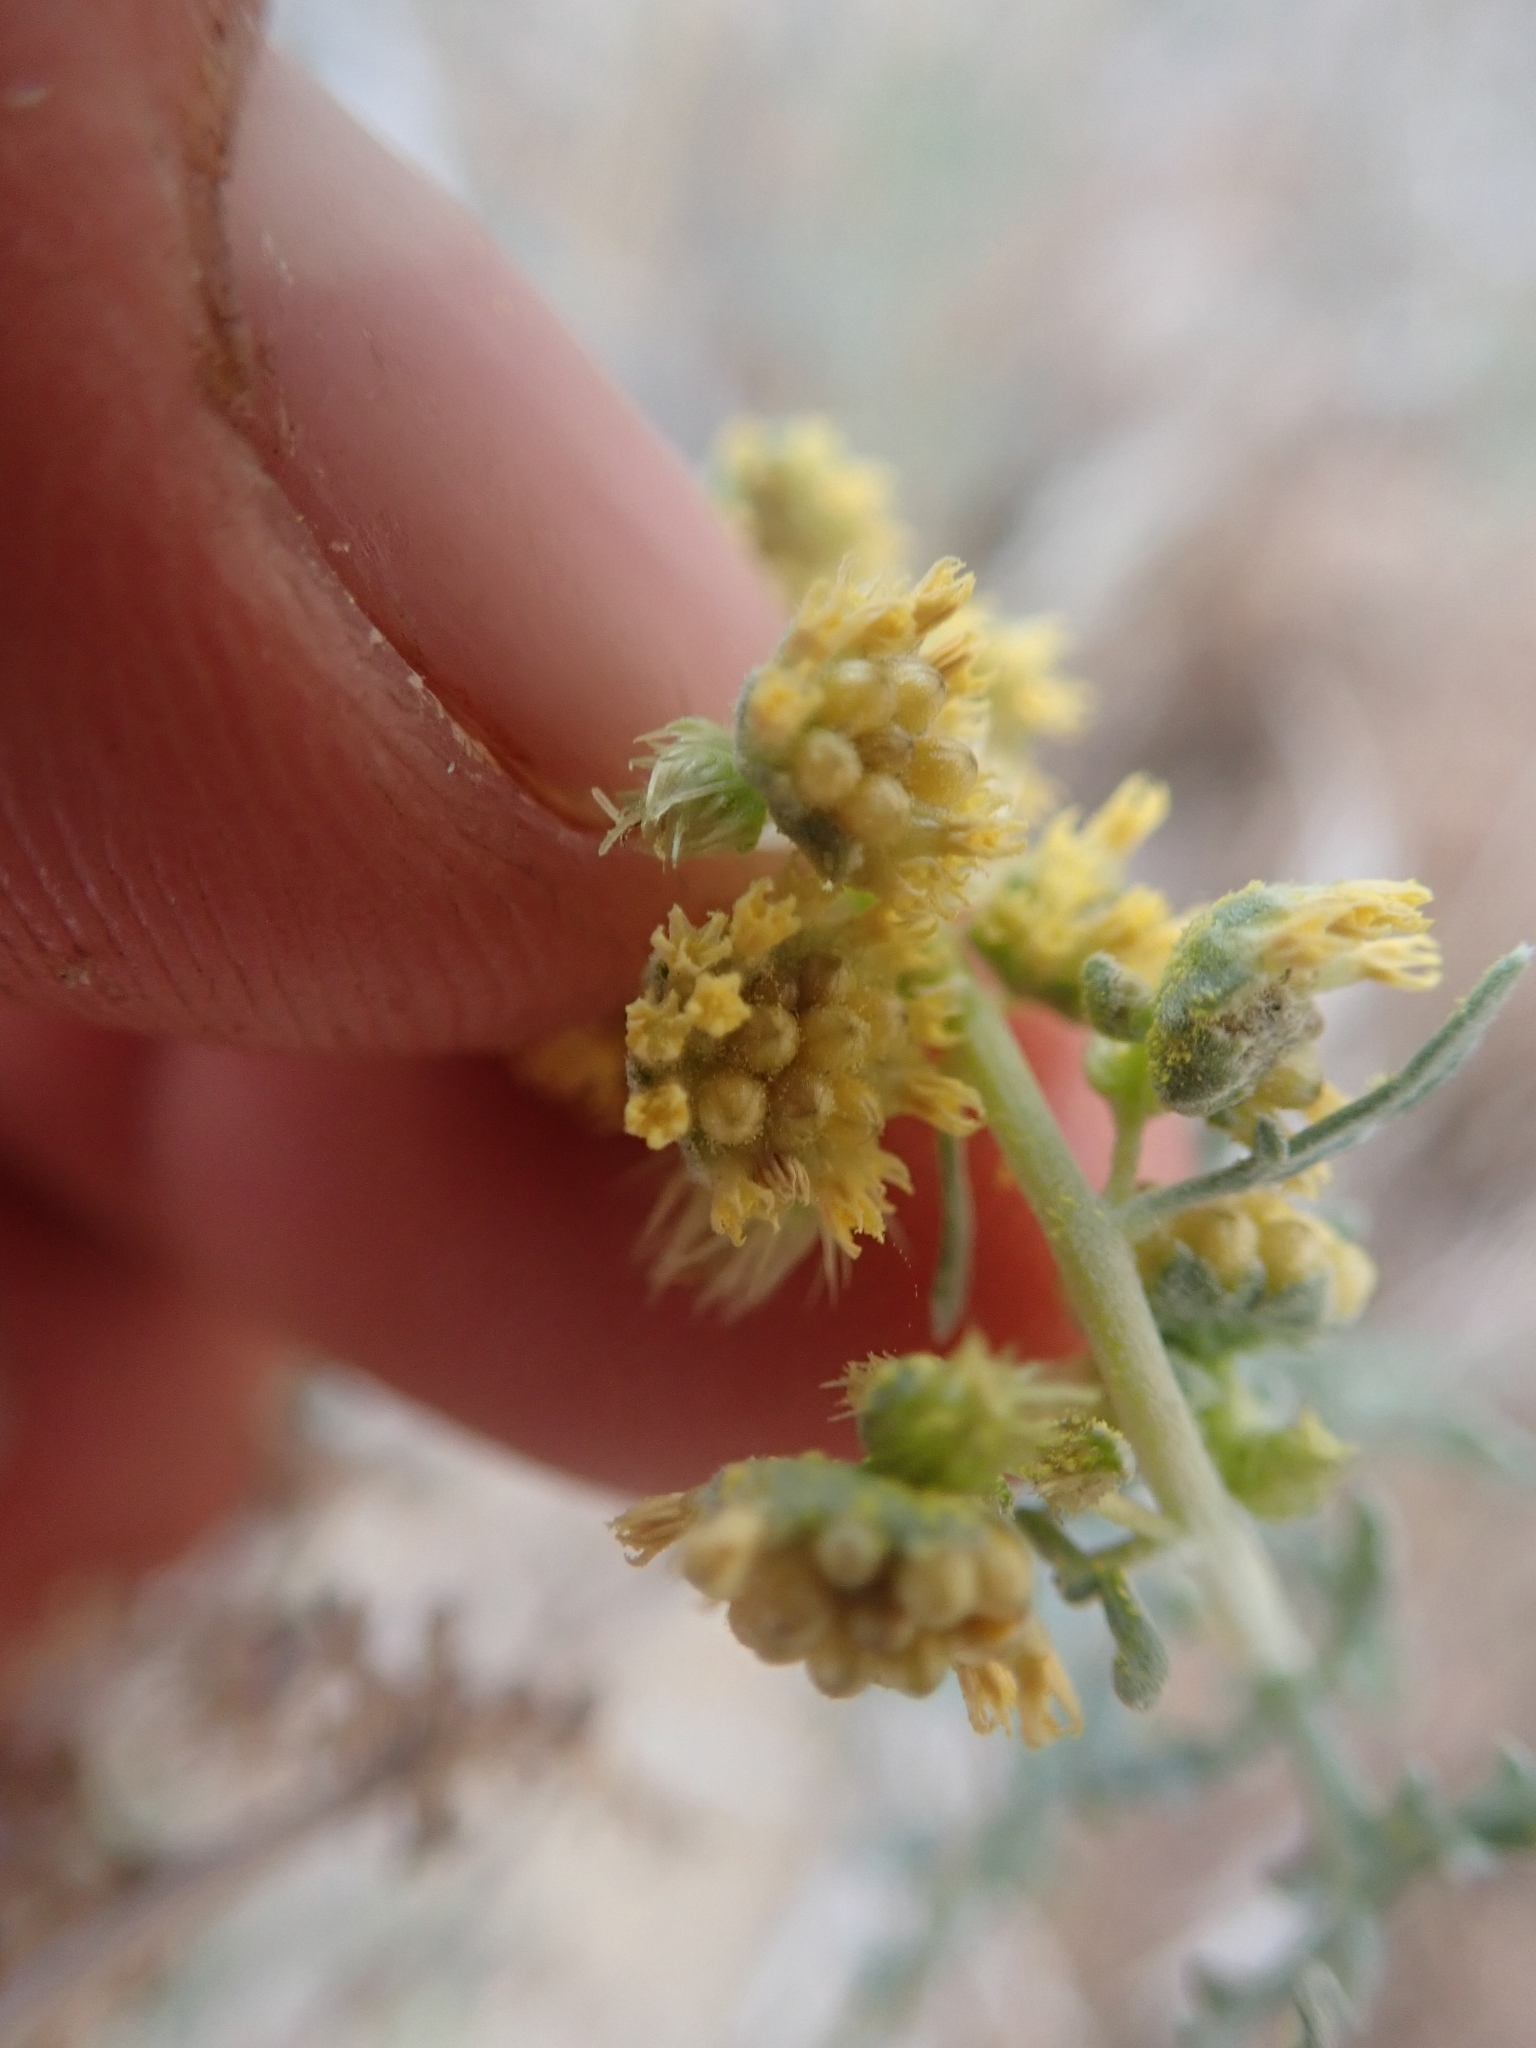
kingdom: Plantae
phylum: Tracheophyta
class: Magnoliopsida
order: Asterales
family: Asteraceae
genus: Ambrosia
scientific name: Ambrosia dumosa
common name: Bur-sage
